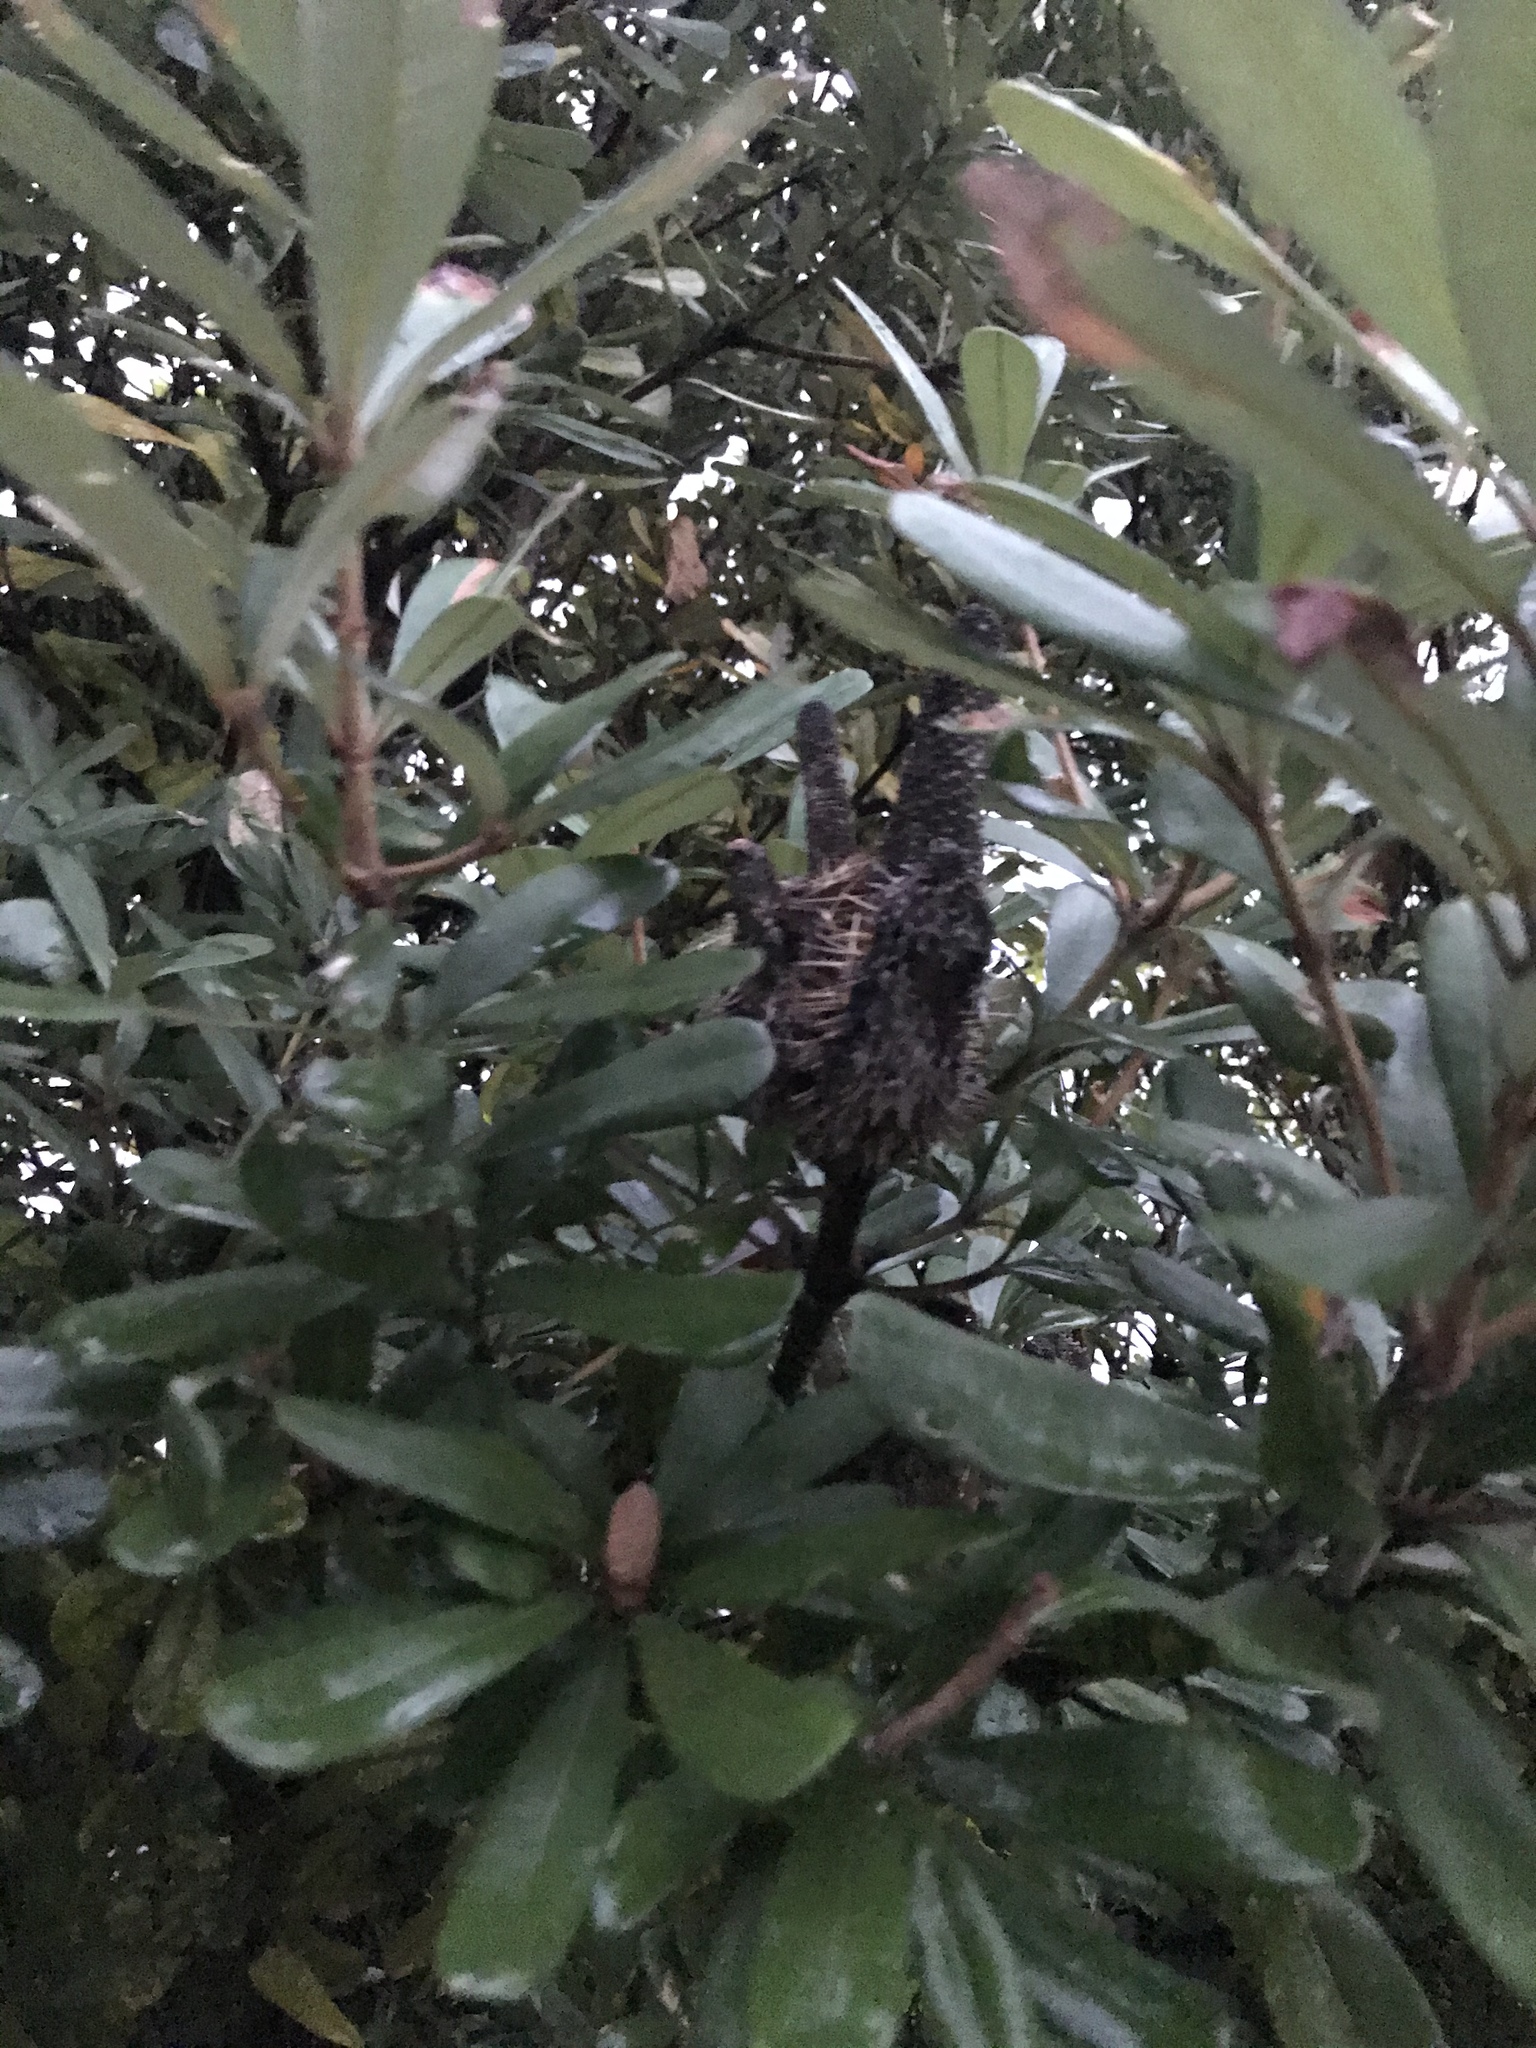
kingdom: Plantae
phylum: Tracheophyta
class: Magnoliopsida
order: Proteales
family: Proteaceae
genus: Banksia
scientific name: Banksia integrifolia
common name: White-honeysuckle
